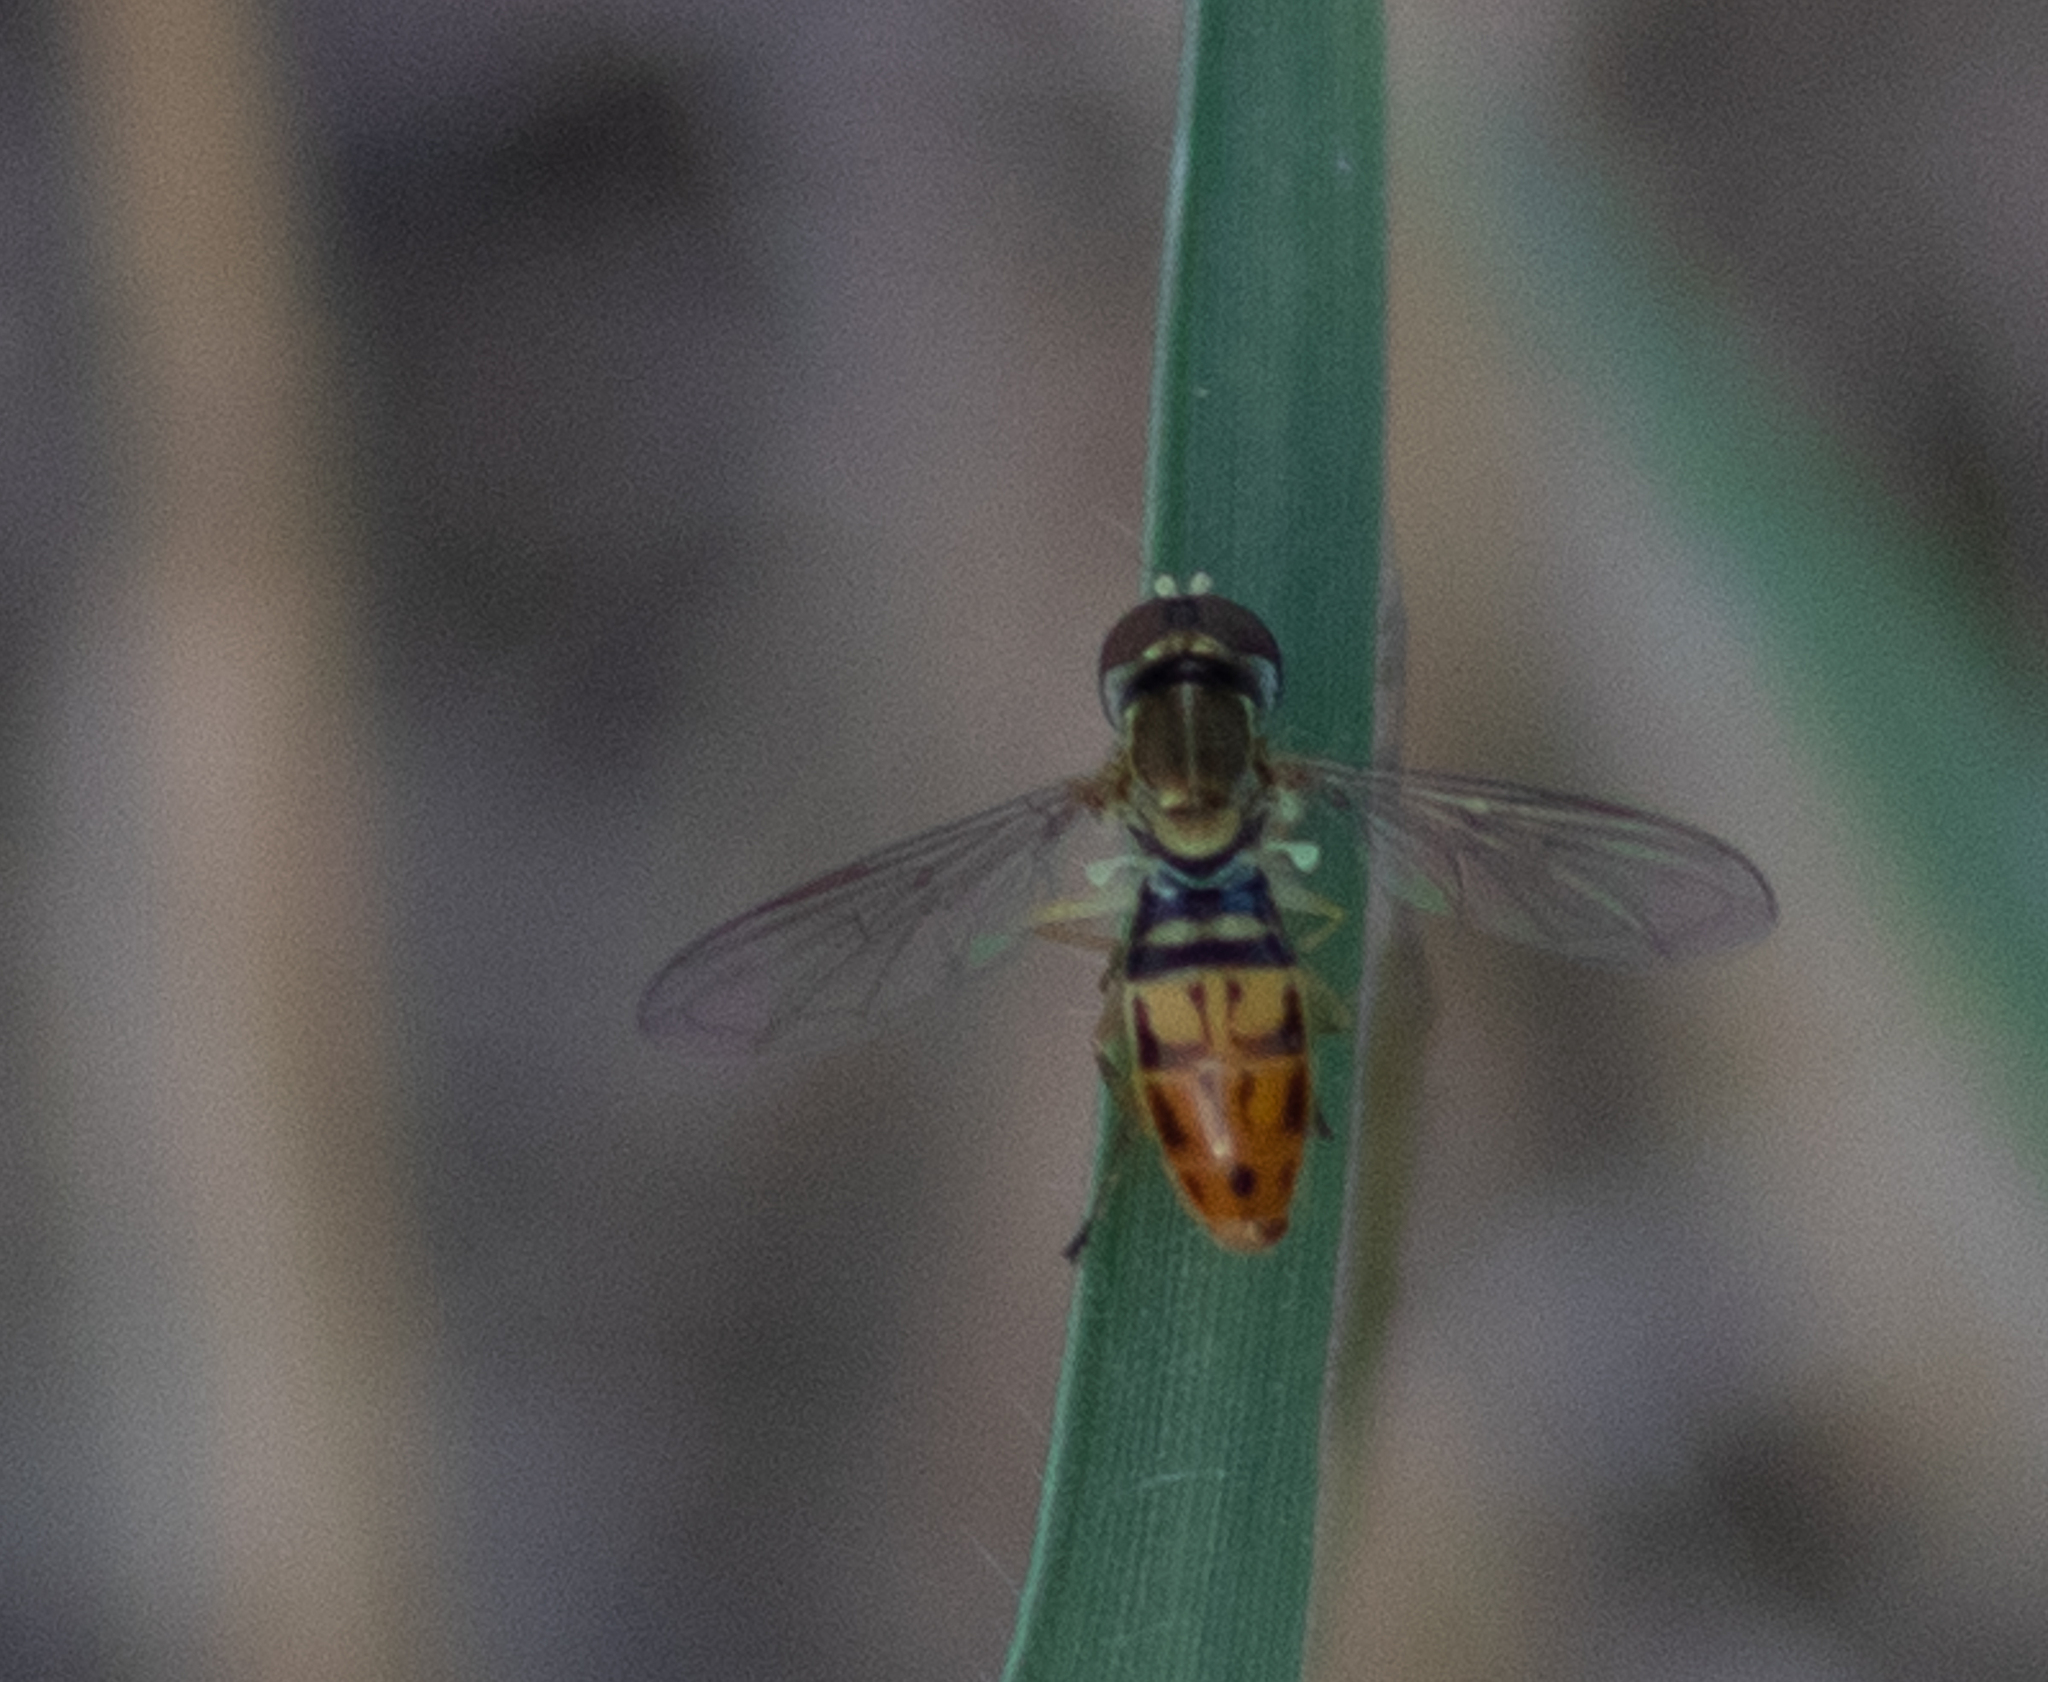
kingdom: Animalia
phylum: Arthropoda
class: Insecta
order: Diptera
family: Syrphidae
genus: Toxomerus
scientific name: Toxomerus marginatus
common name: Syrphid fly
